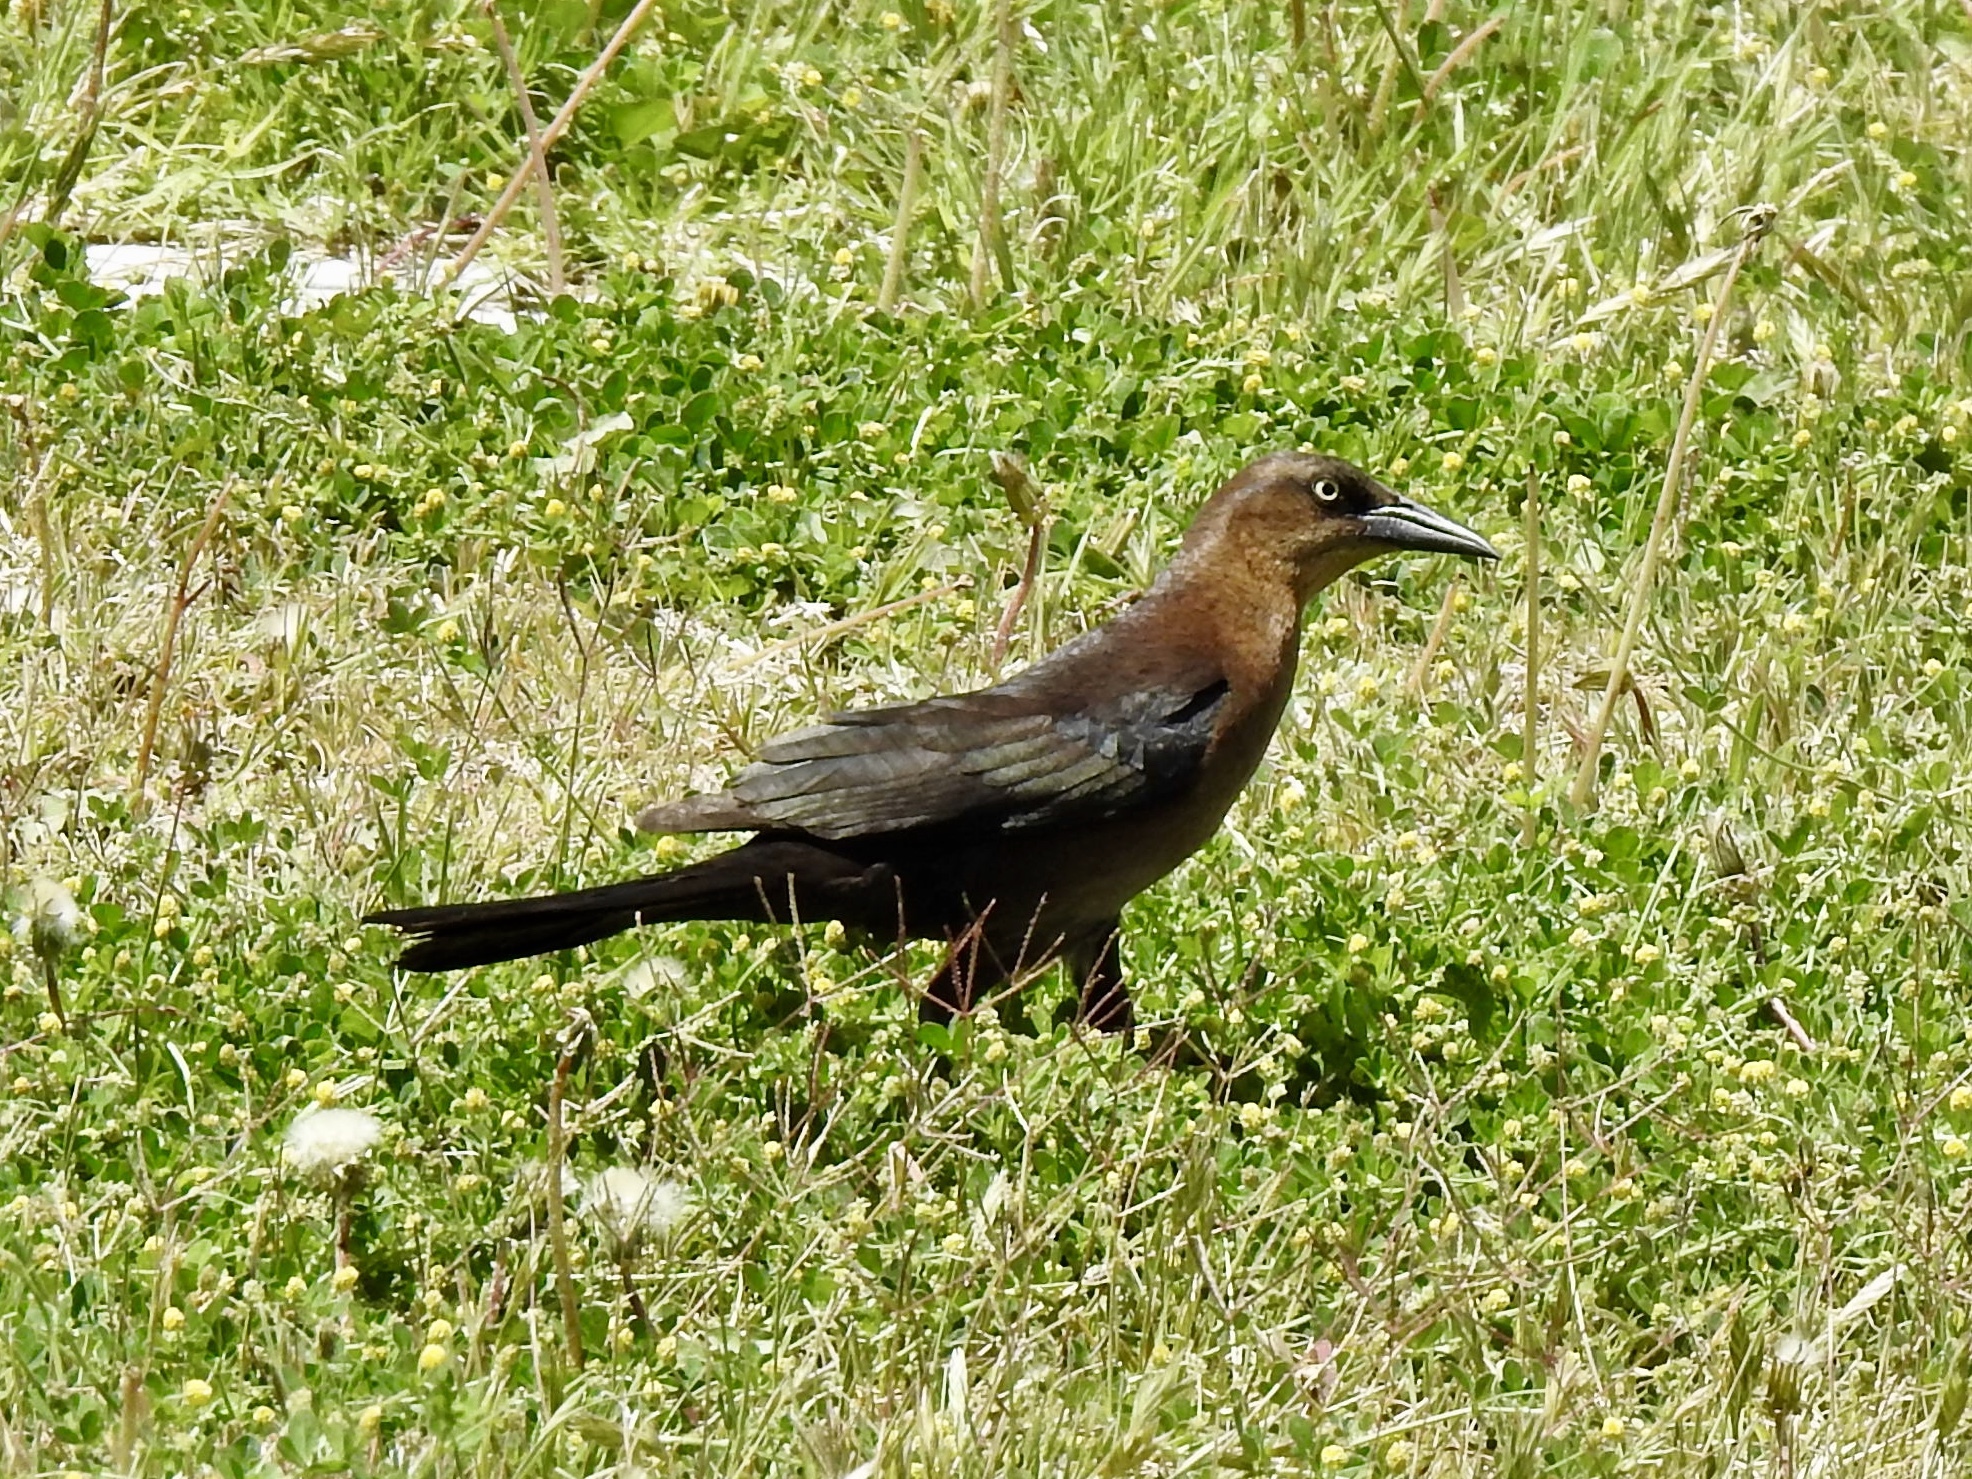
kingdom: Animalia
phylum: Chordata
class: Aves
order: Passeriformes
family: Icteridae
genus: Quiscalus
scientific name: Quiscalus mexicanus
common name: Great-tailed grackle
